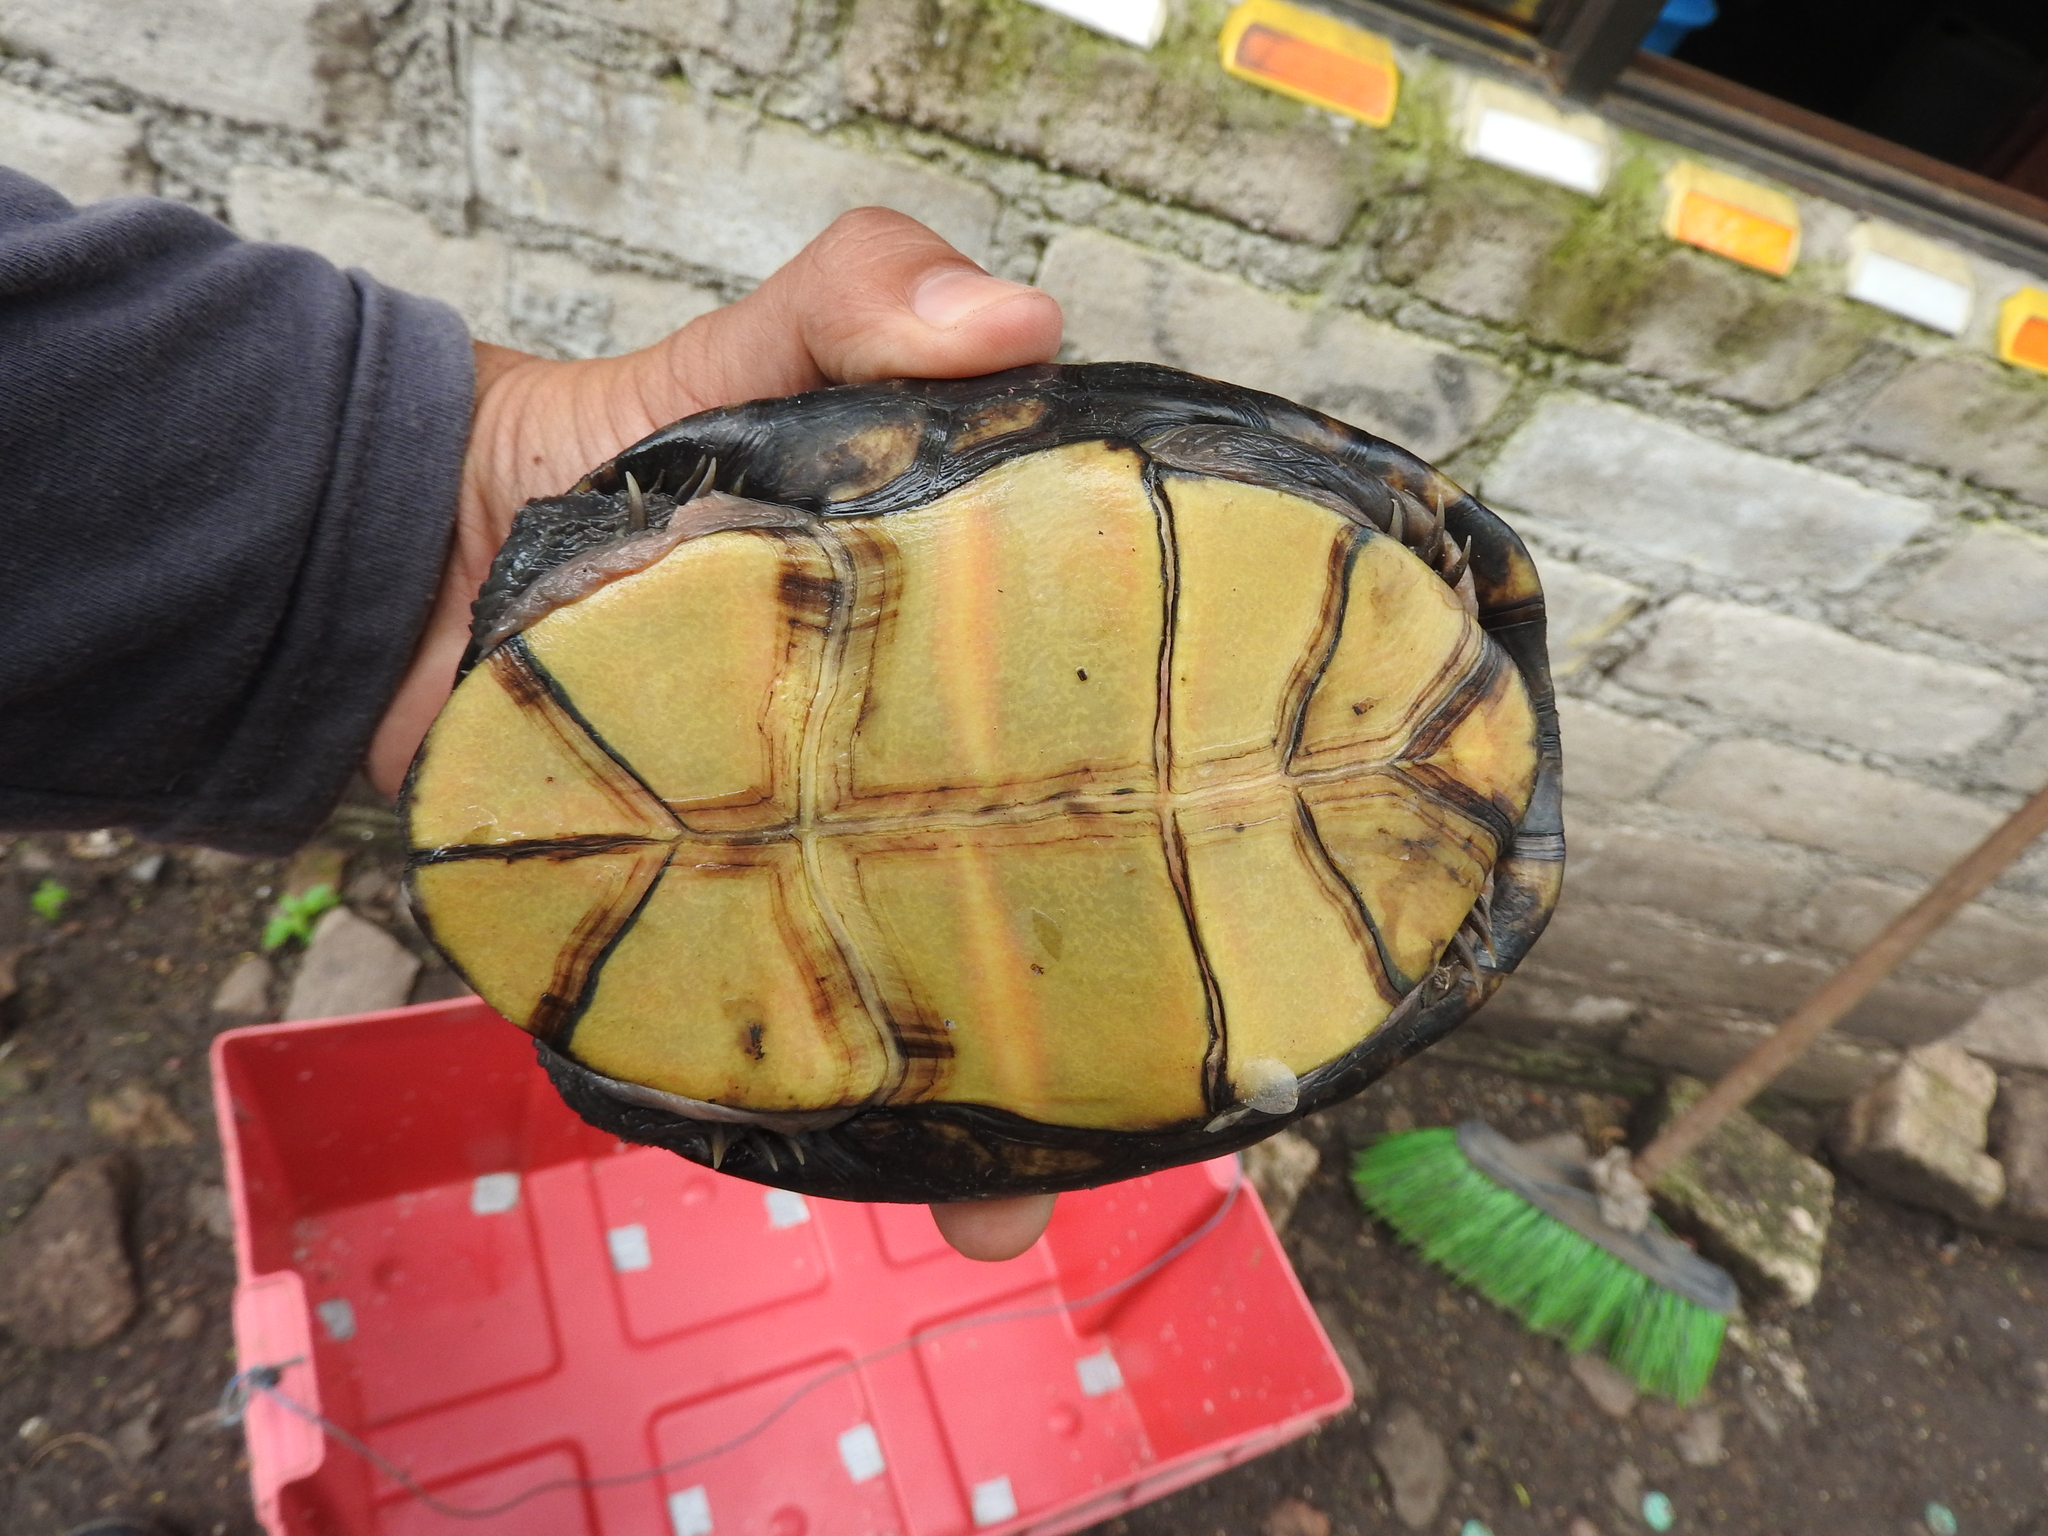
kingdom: Animalia
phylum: Chordata
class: Testudines
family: Kinosternidae
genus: Kinosternon
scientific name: Kinosternon integrum
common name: Mexican mud turtle
